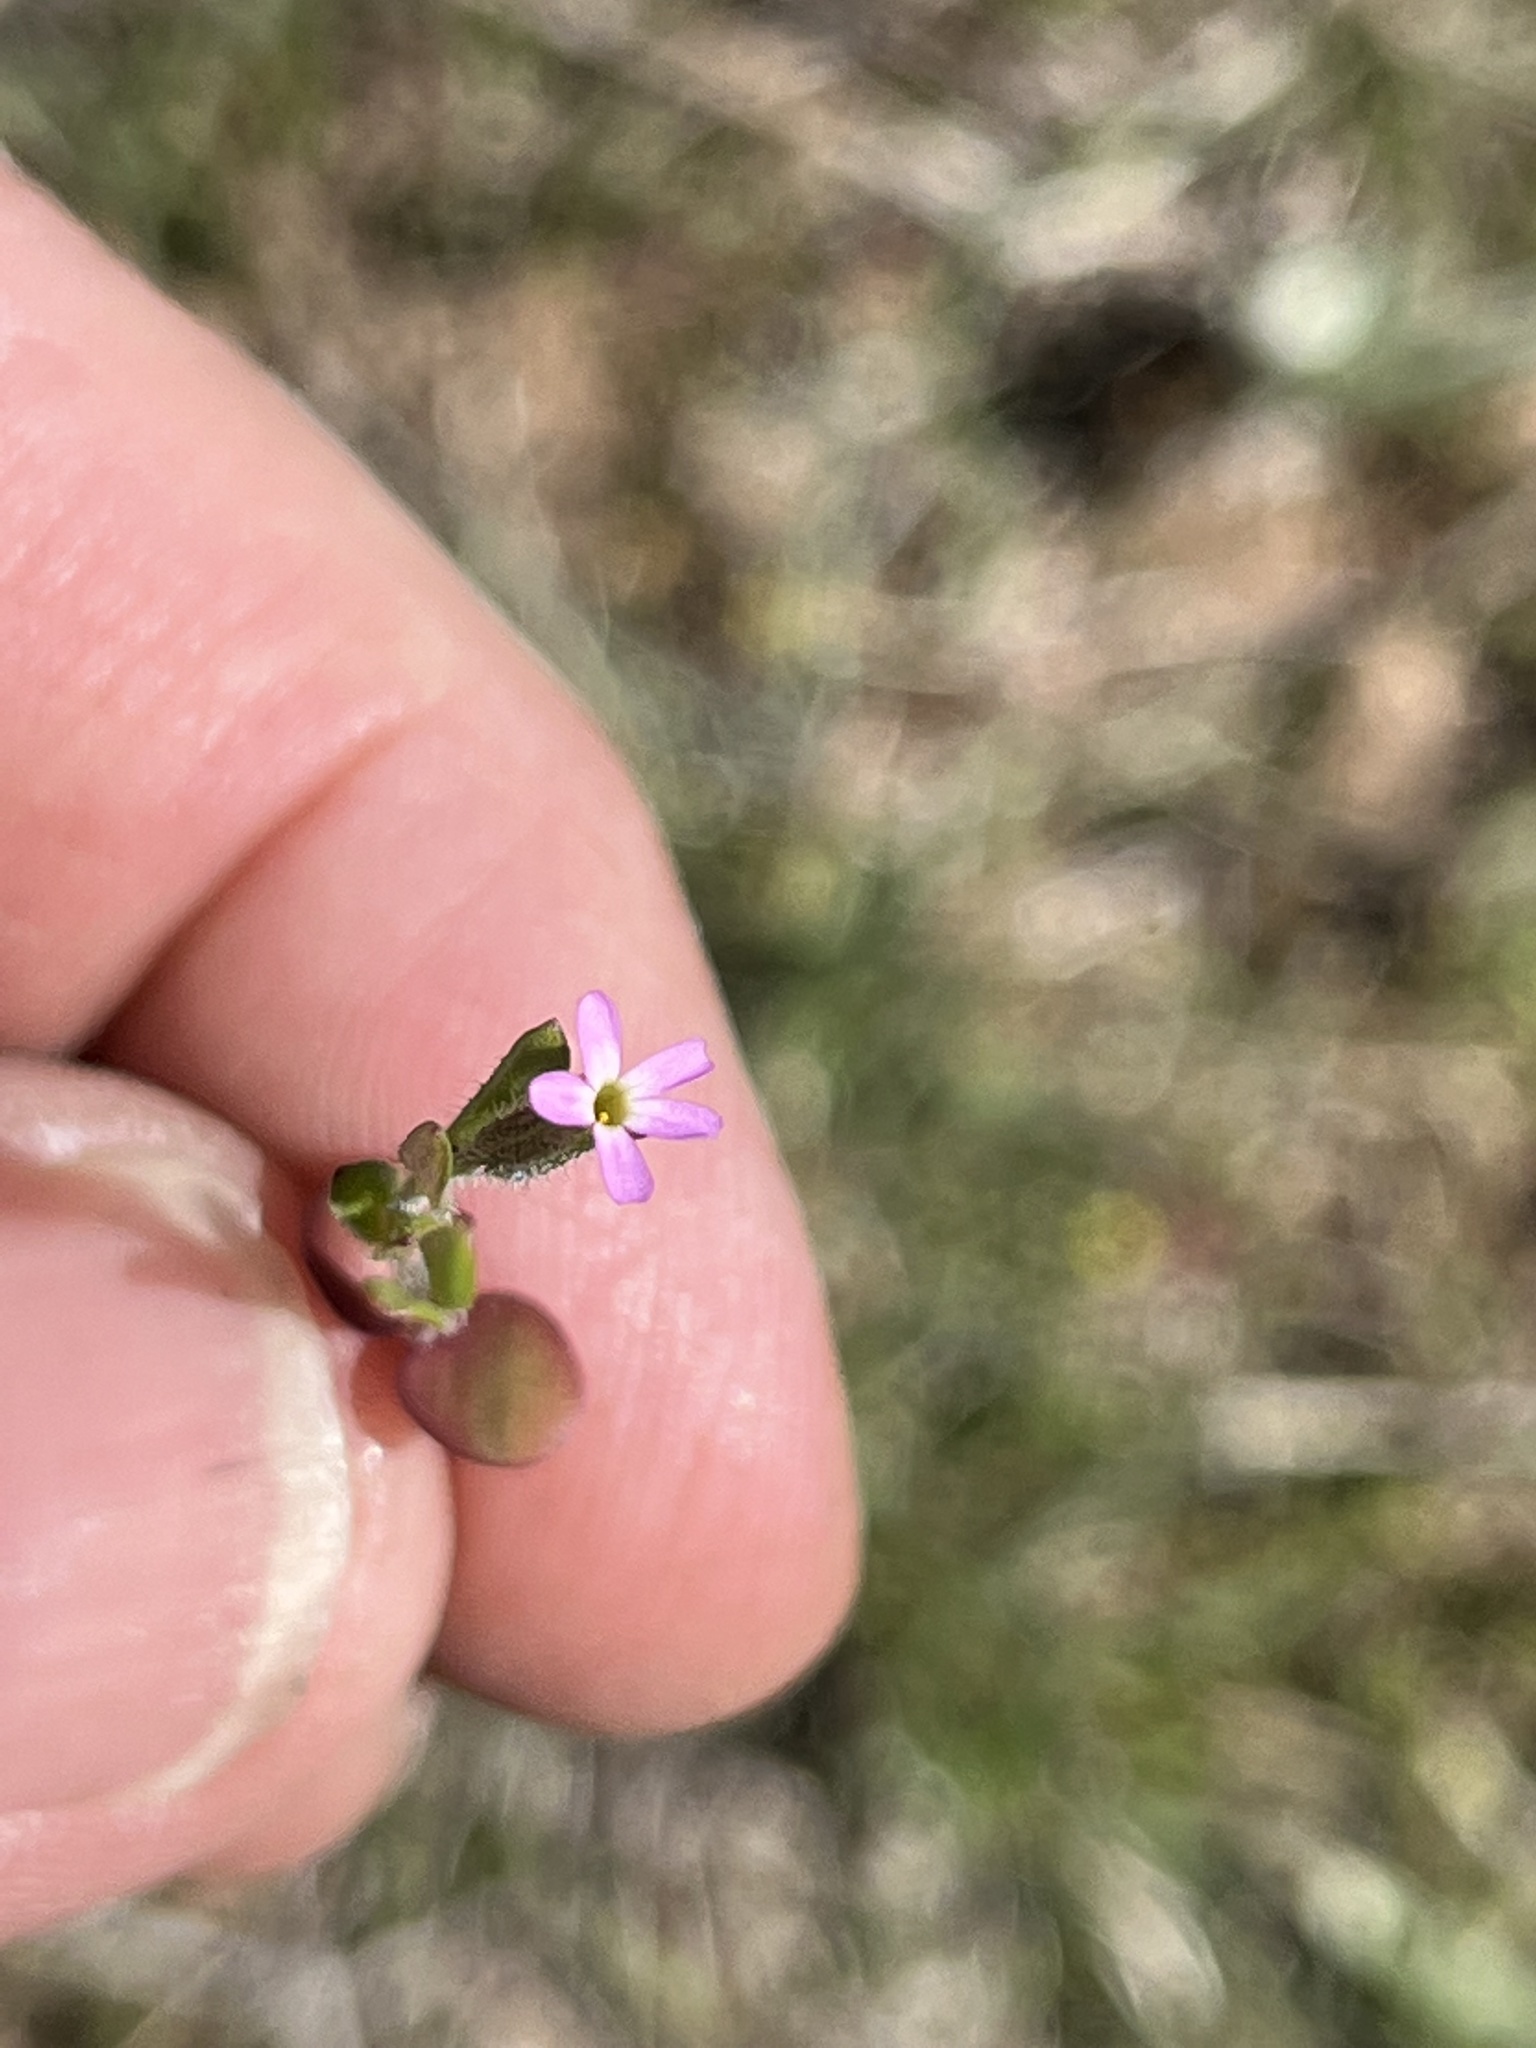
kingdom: Plantae
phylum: Tracheophyta
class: Magnoliopsida
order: Ericales
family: Polemoniaceae
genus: Phlox
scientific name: Phlox gracilis
